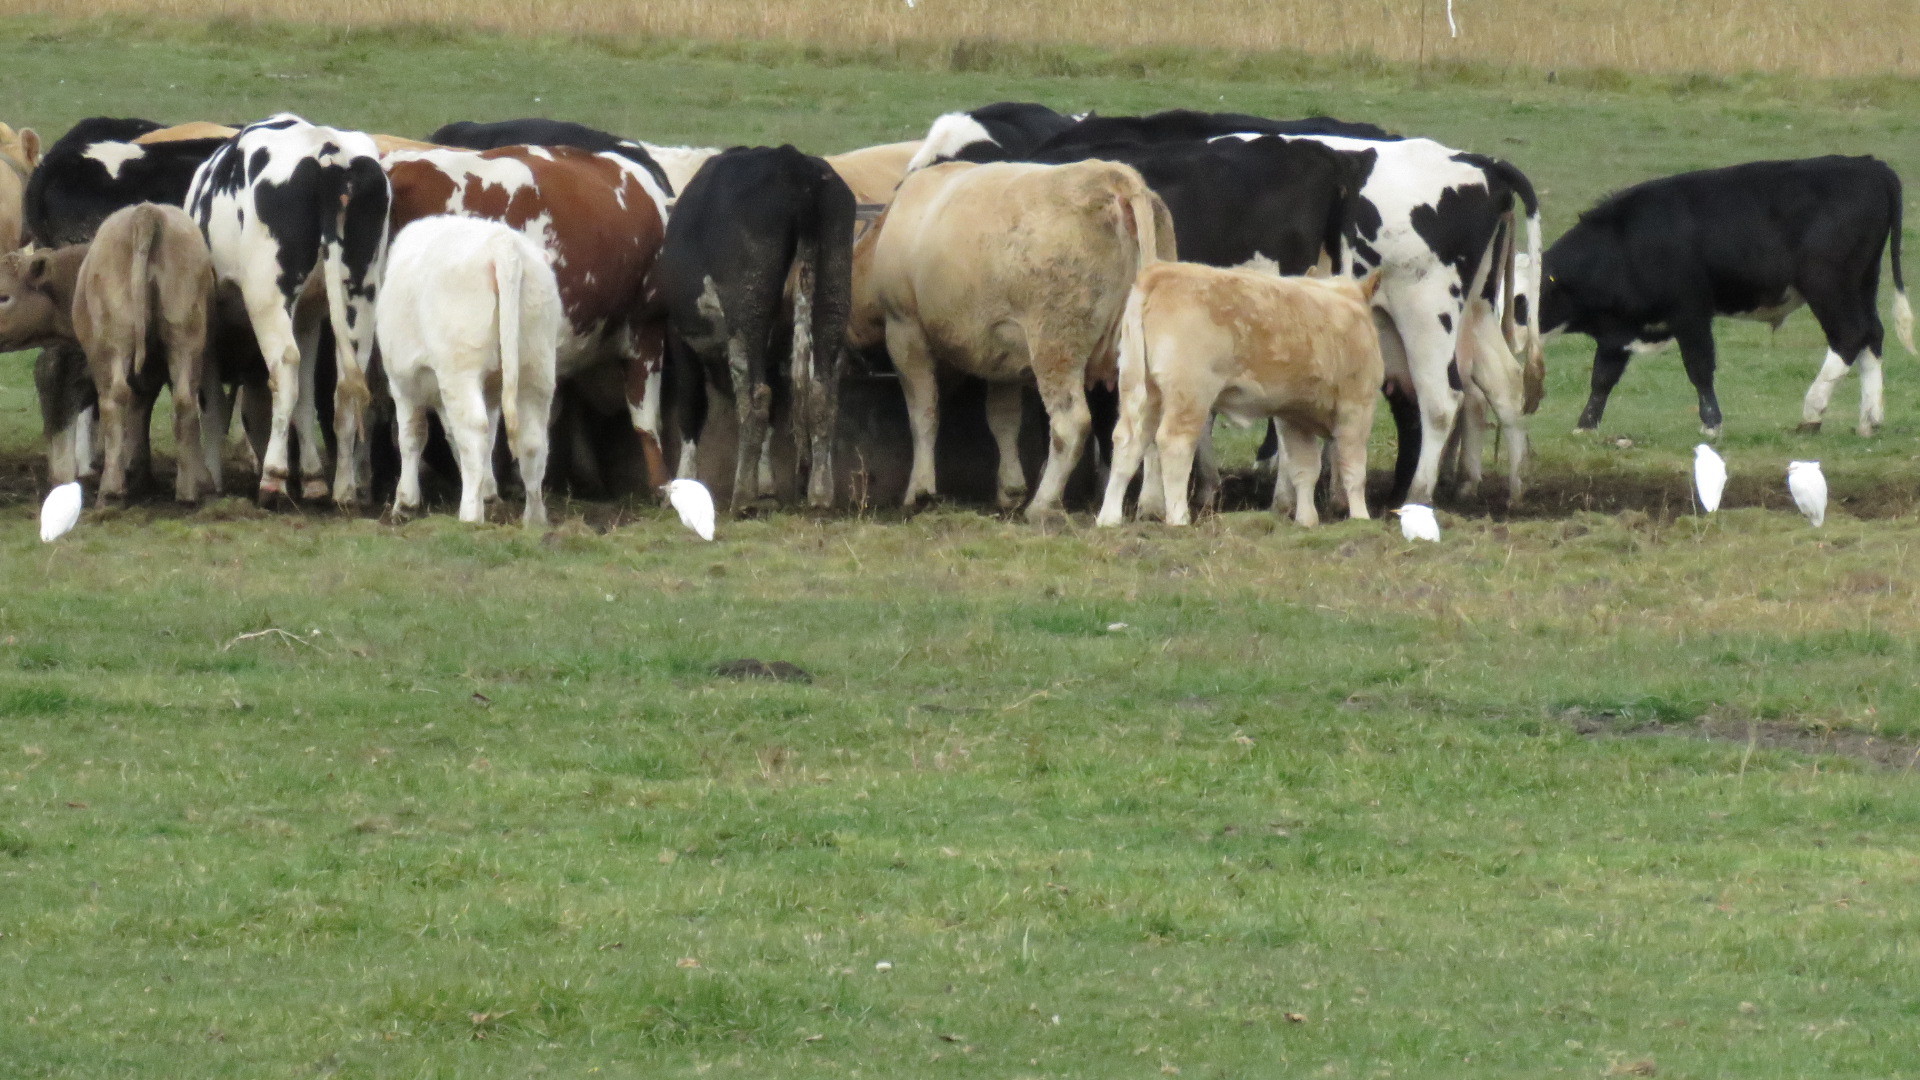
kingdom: Animalia
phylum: Chordata
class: Aves
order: Pelecaniformes
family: Ardeidae
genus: Bubulcus
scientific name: Bubulcus ibis
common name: Cattle egret
